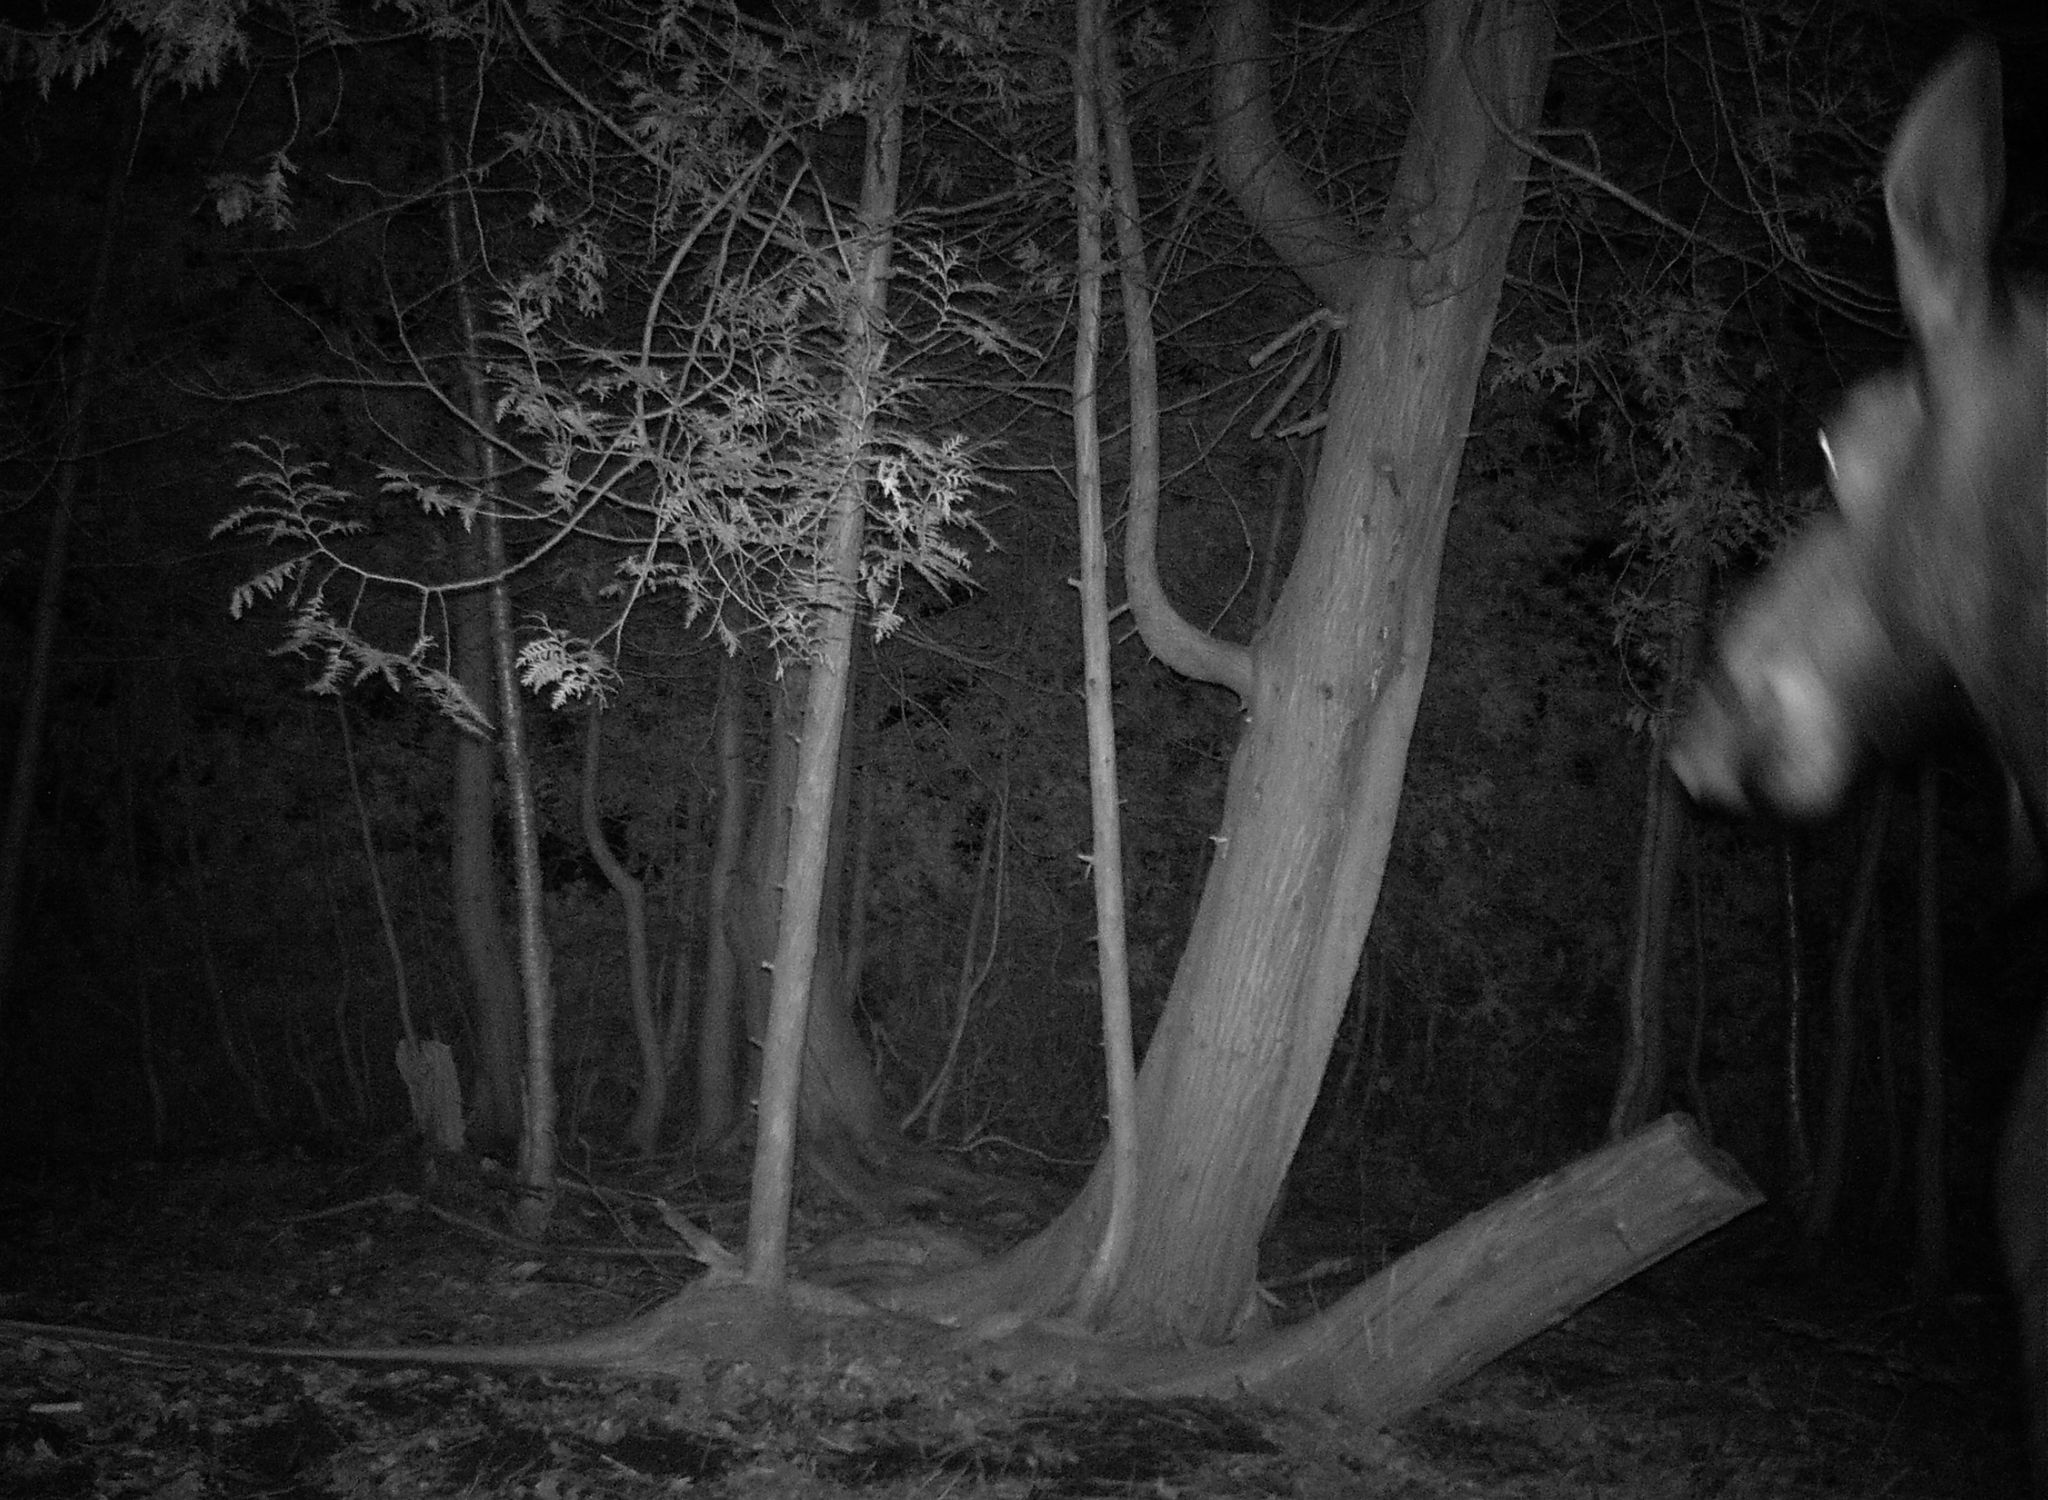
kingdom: Animalia
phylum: Chordata
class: Mammalia
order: Artiodactyla
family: Cervidae
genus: Alces
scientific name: Alces alces
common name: Moose
